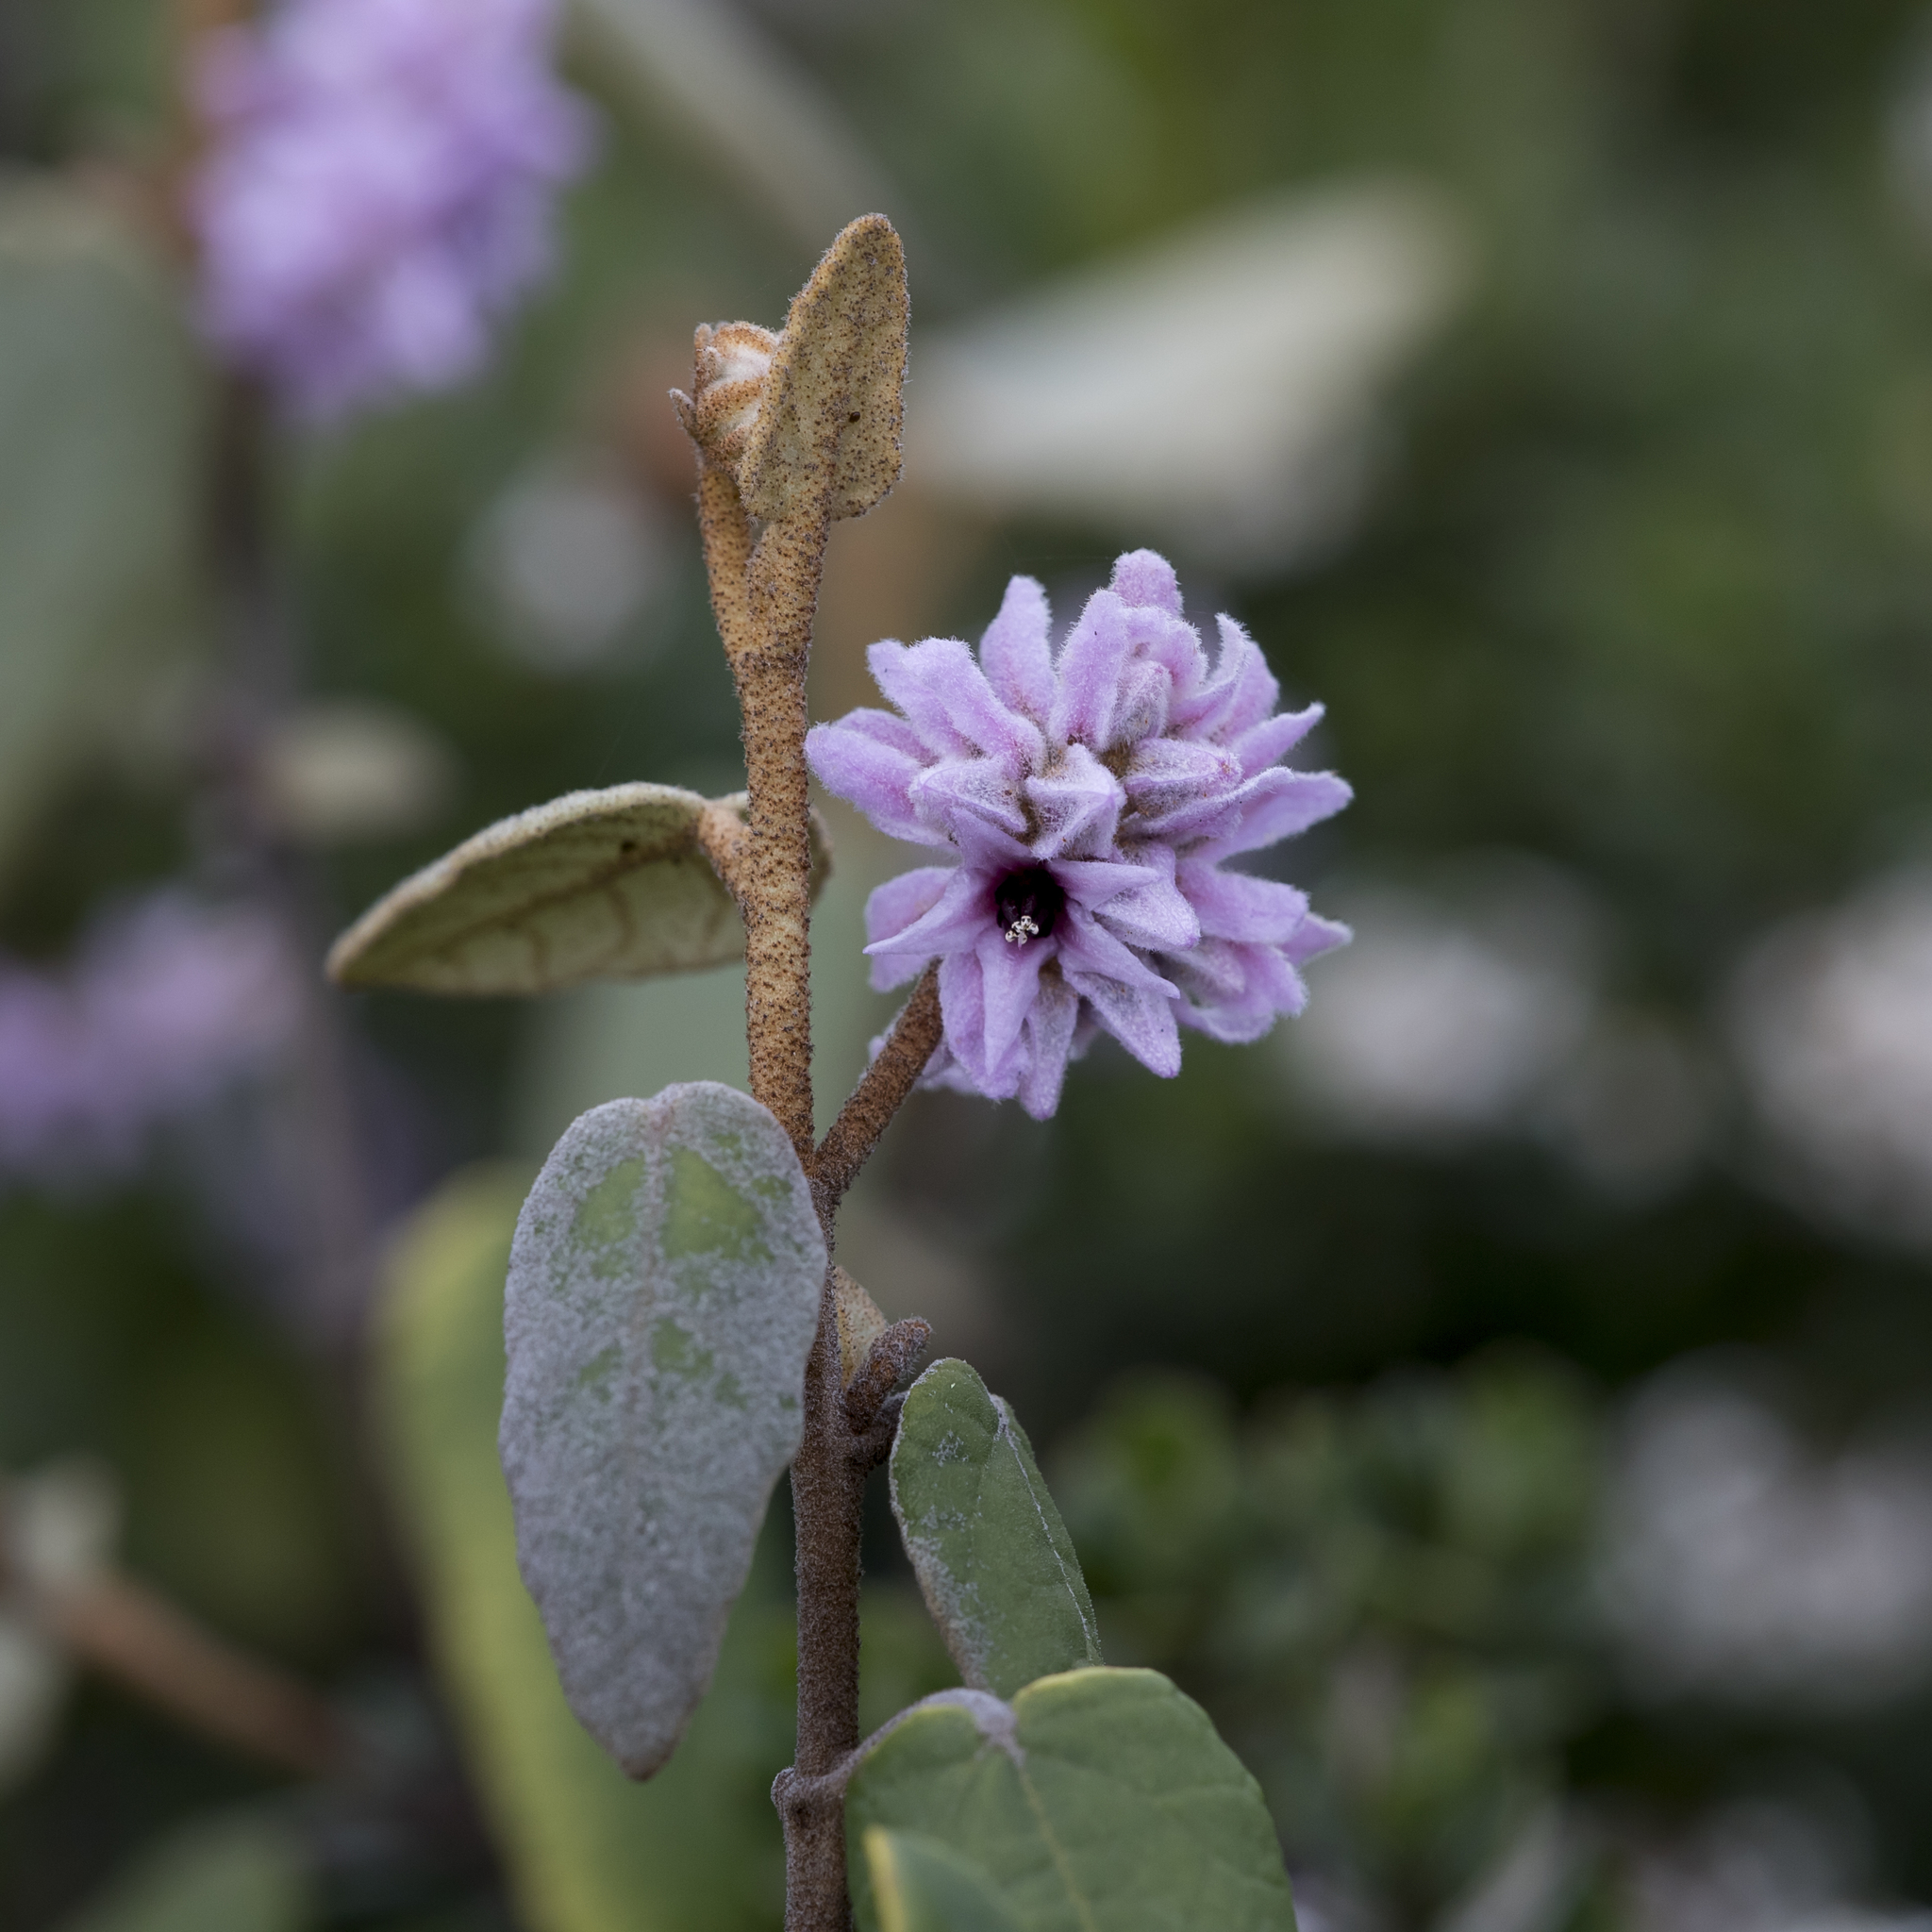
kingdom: Plantae
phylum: Tracheophyta
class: Magnoliopsida
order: Malvales
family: Malvaceae
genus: Lasiopetalum
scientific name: Lasiopetalum discolor
